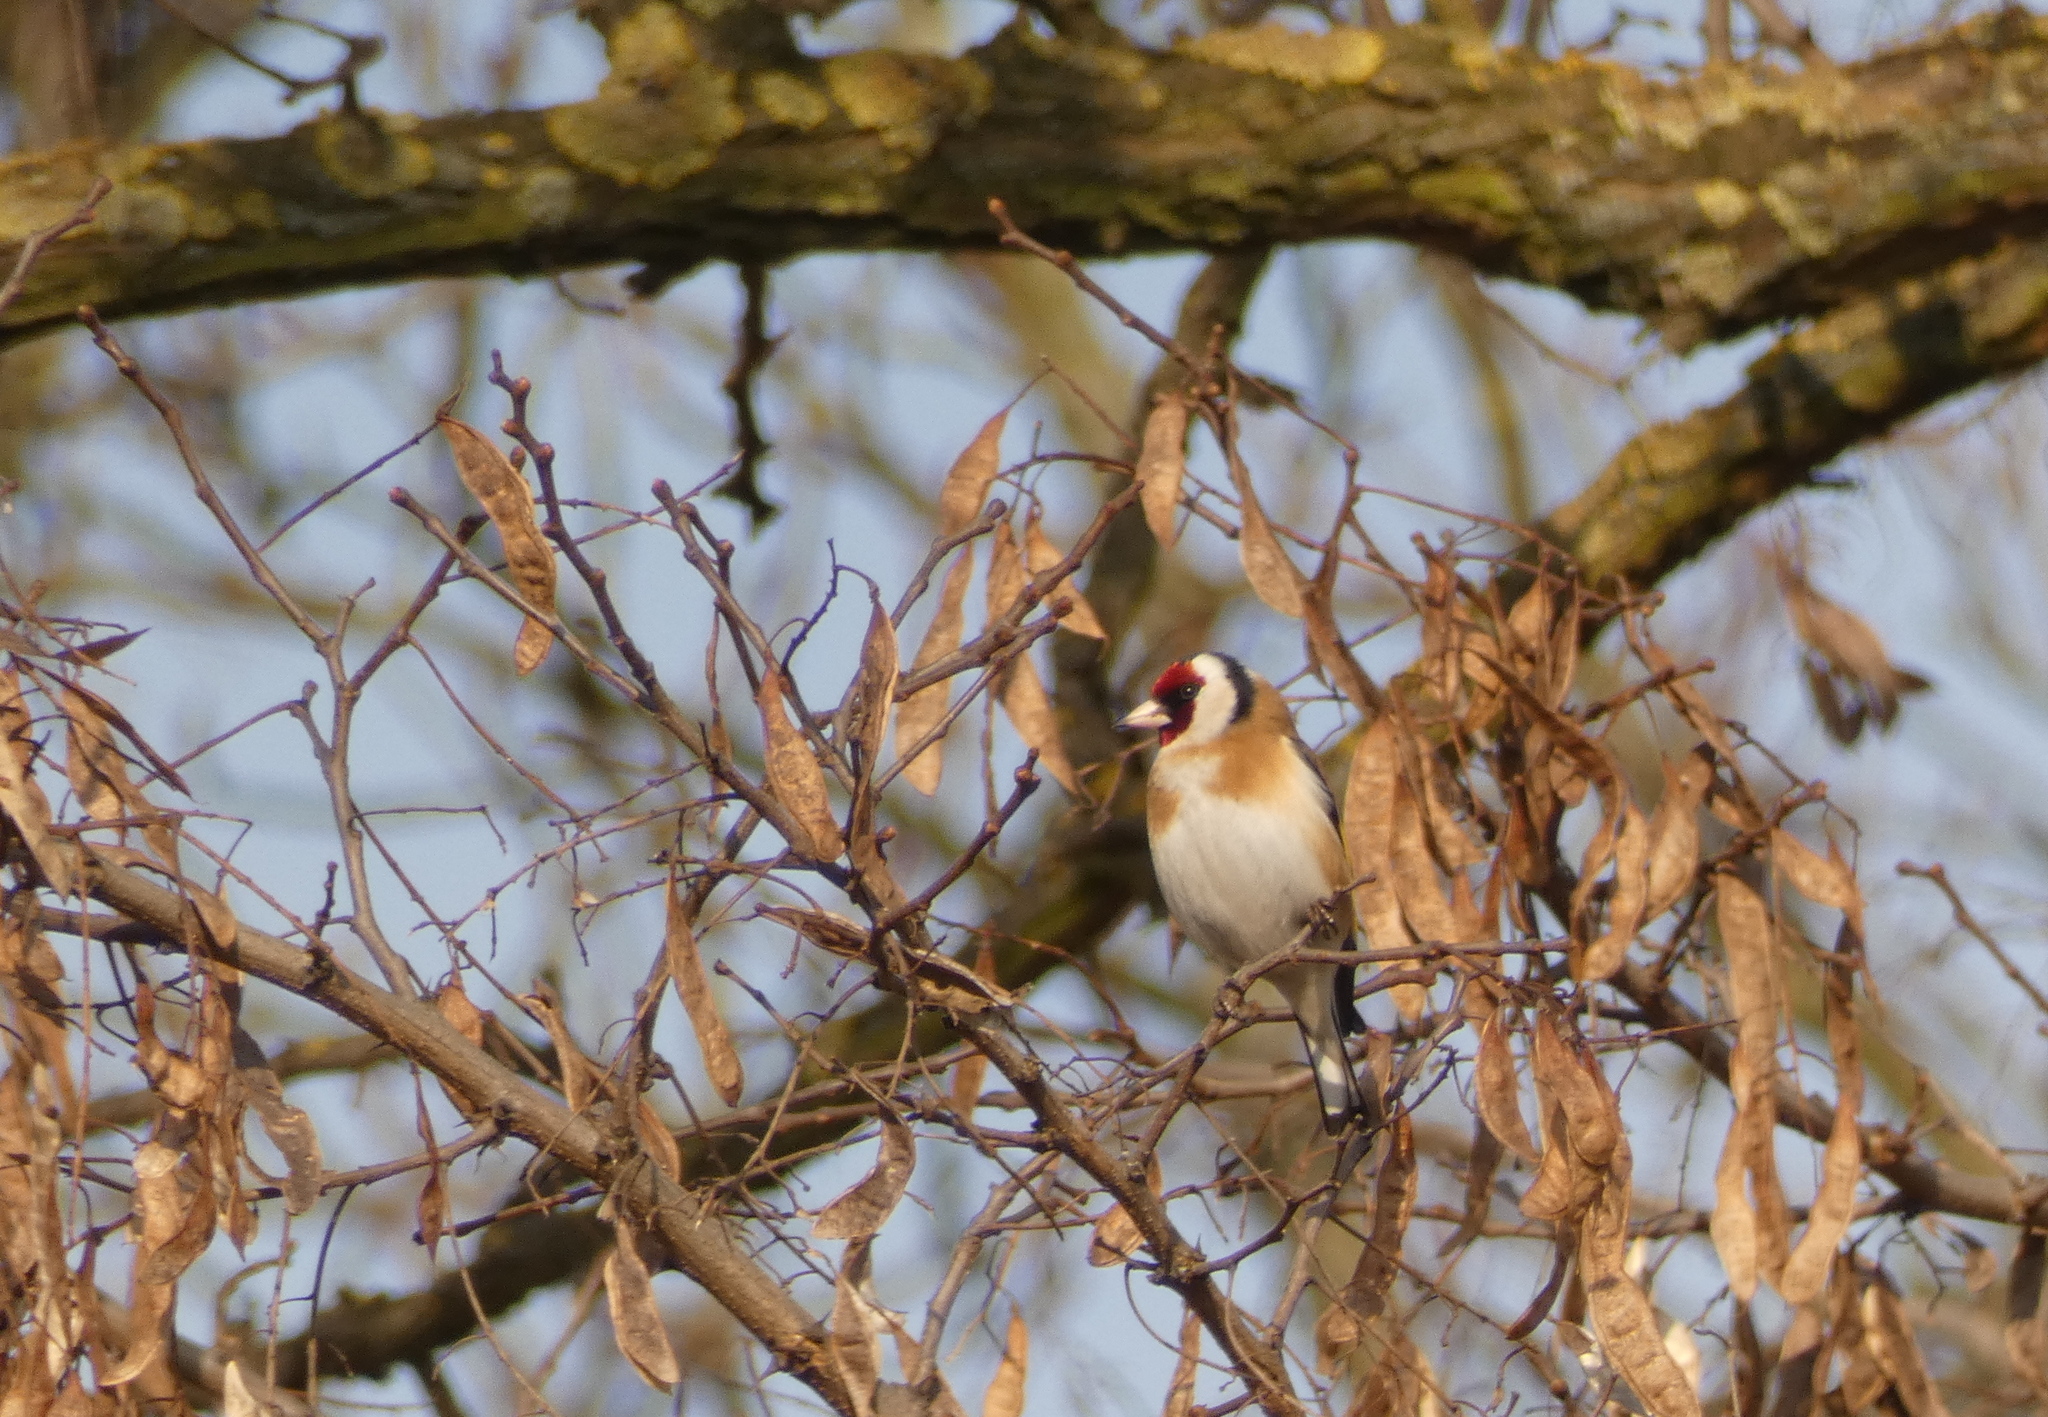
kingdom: Animalia
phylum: Chordata
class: Aves
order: Passeriformes
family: Fringillidae
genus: Carduelis
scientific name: Carduelis carduelis
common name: European goldfinch
